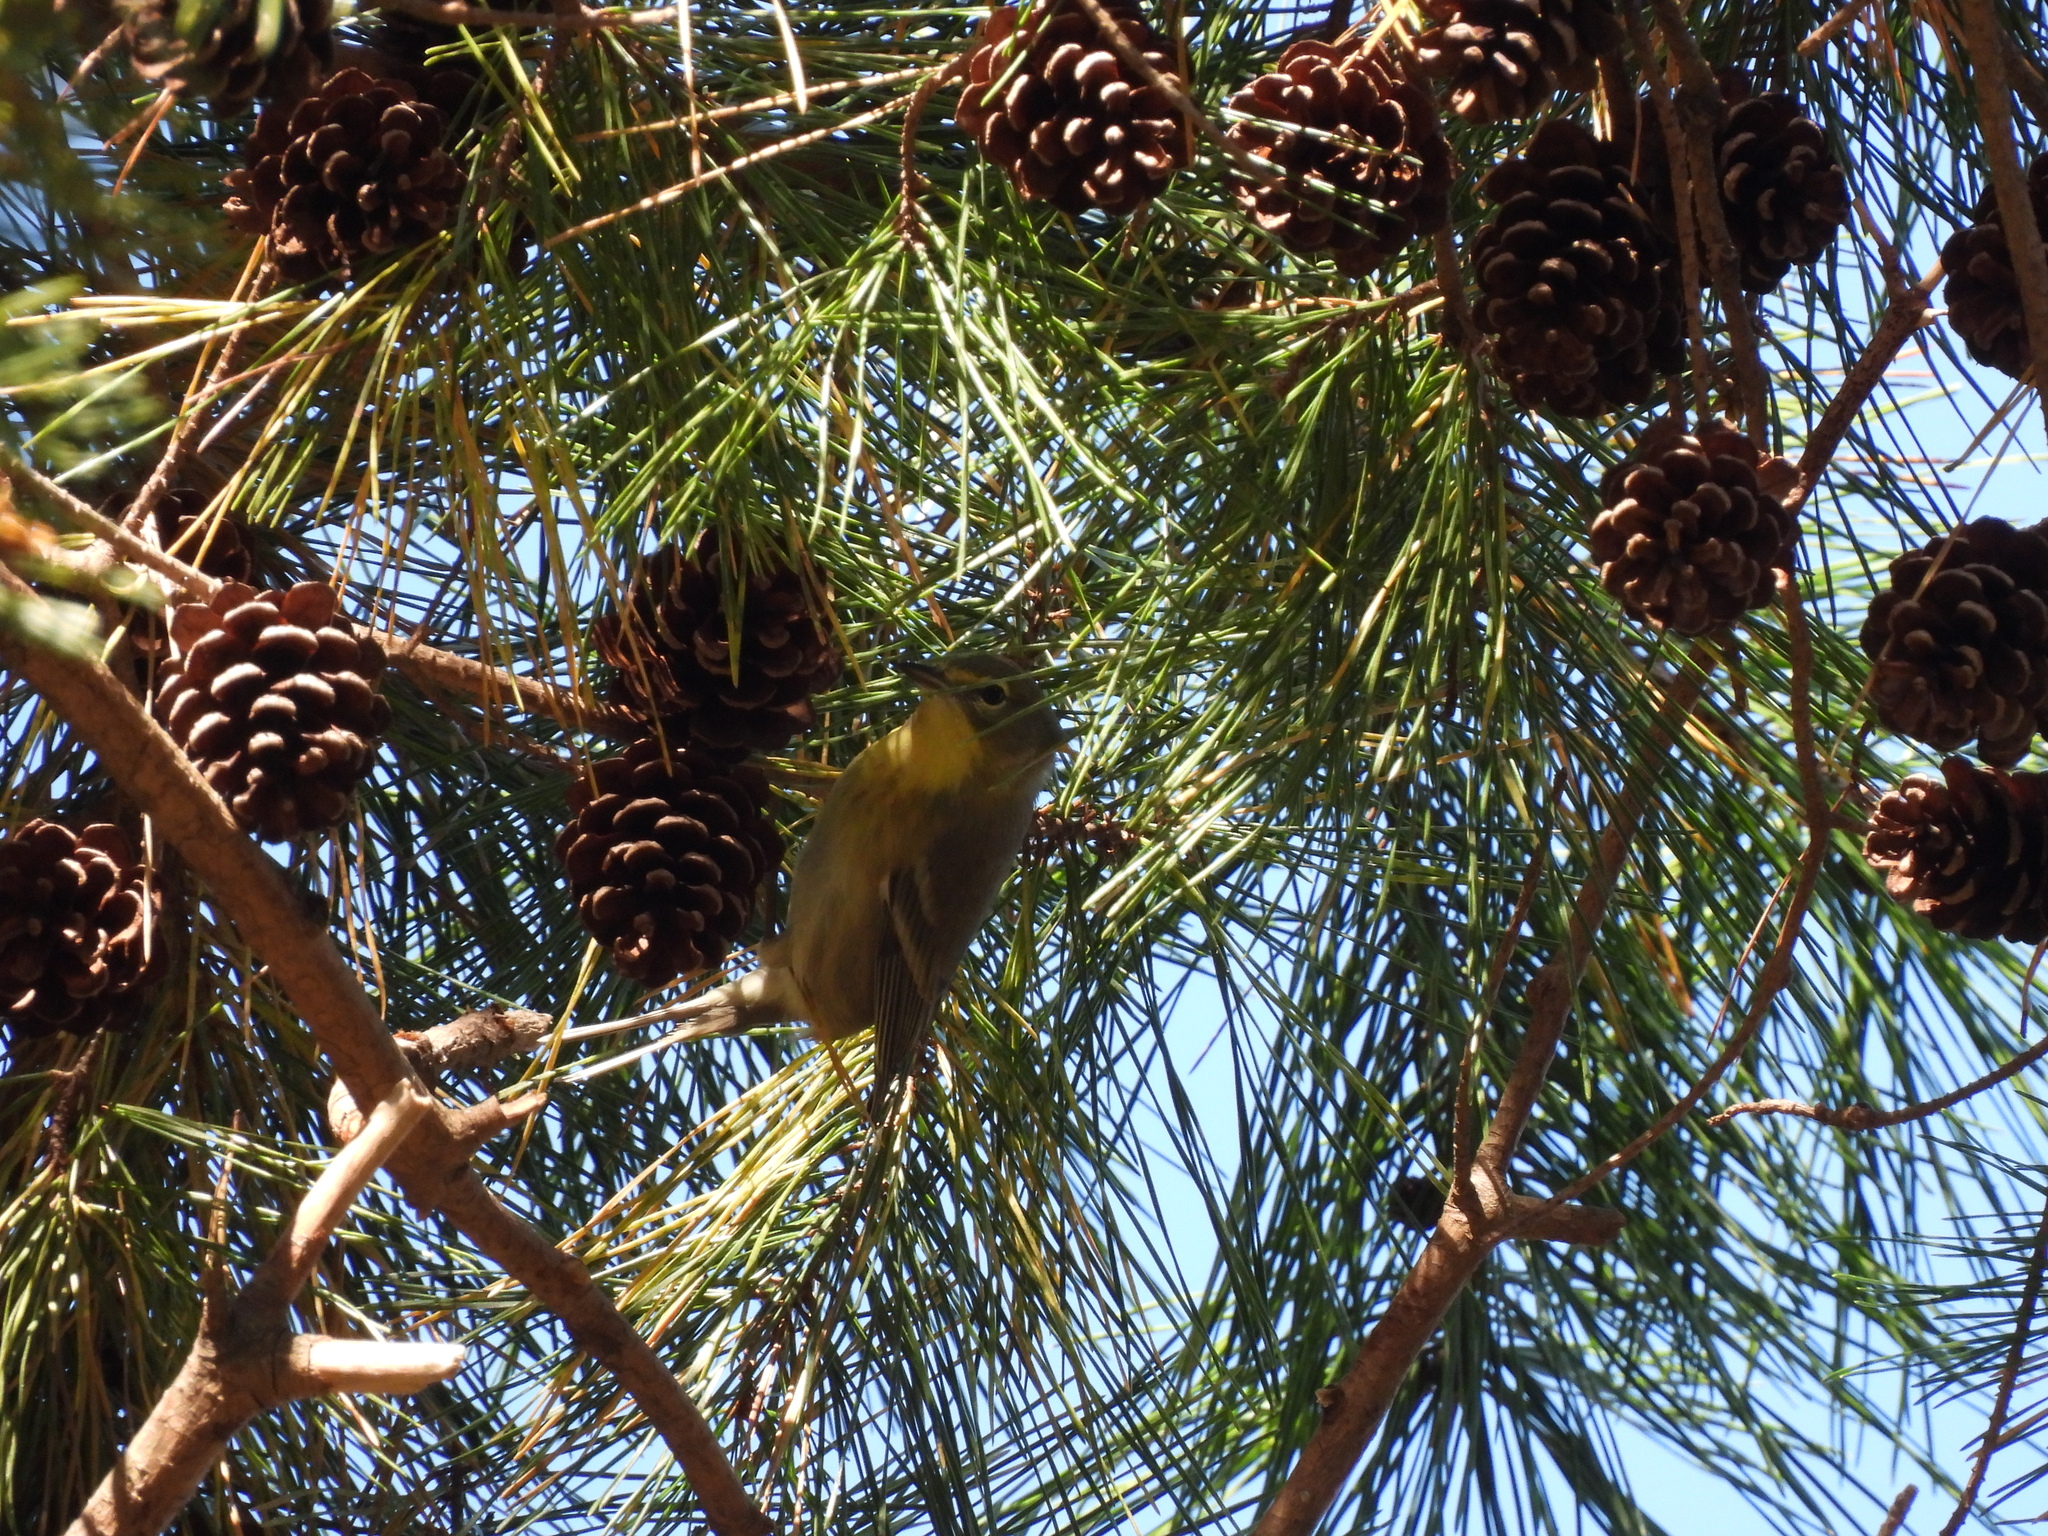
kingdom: Animalia
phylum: Chordata
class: Aves
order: Passeriformes
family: Parulidae
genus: Setophaga
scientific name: Setophaga pinus
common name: Pine warbler
